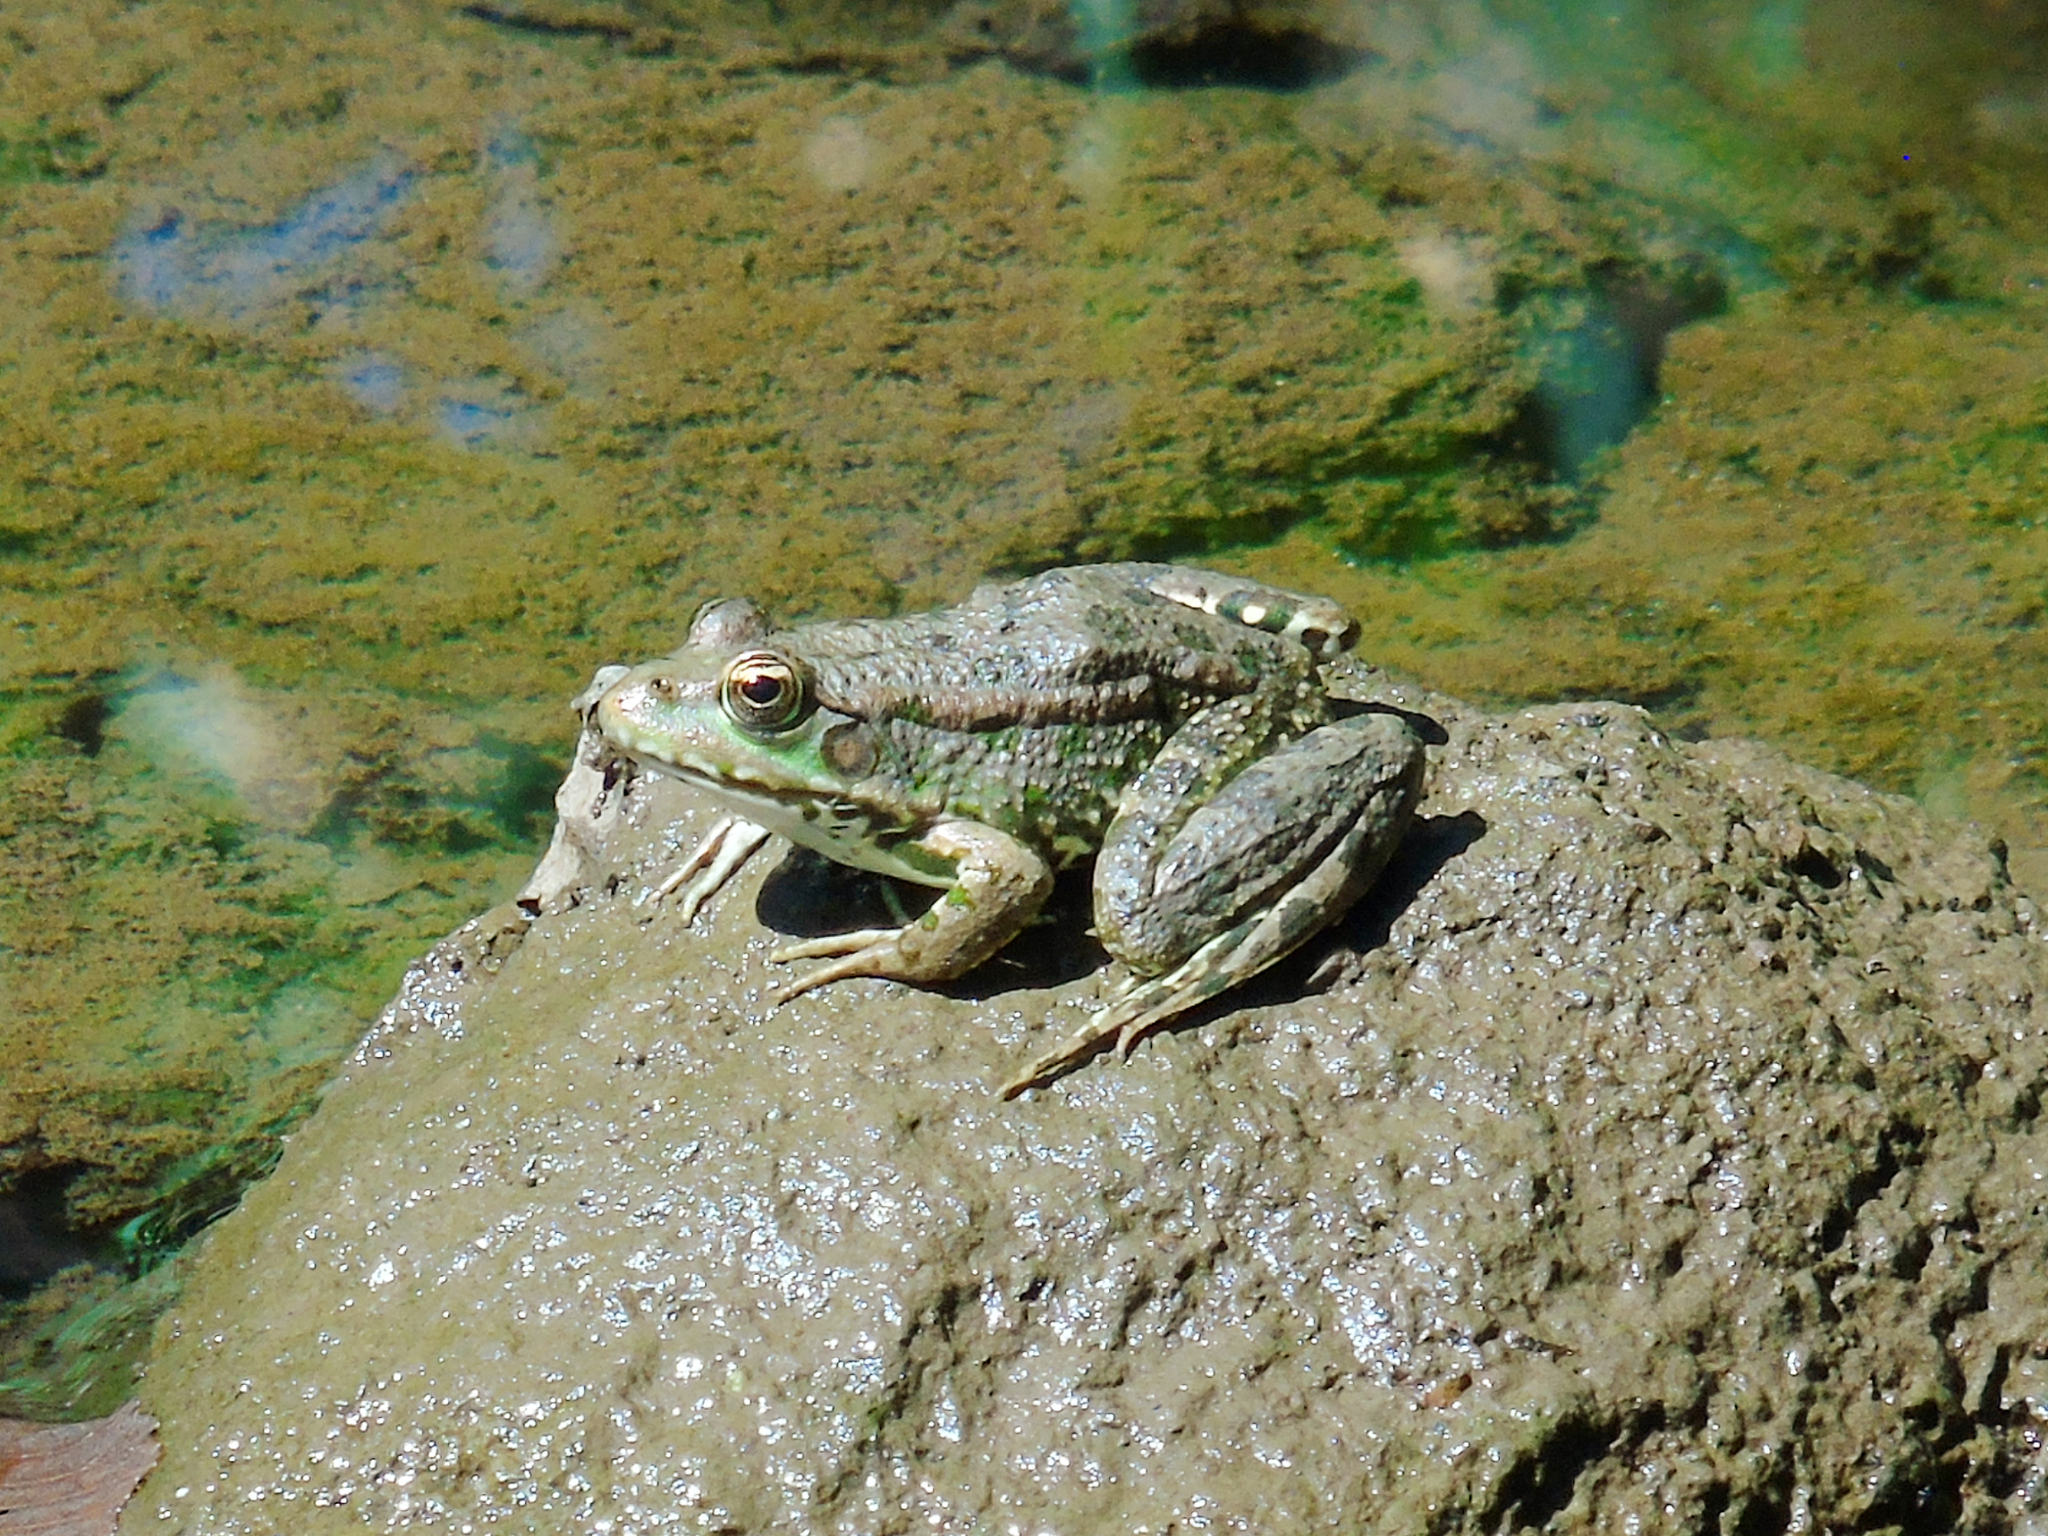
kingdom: Animalia
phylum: Chordata
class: Amphibia
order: Anura
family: Ranidae
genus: Pelophylax
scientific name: Pelophylax ridibundus
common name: Marsh frog
